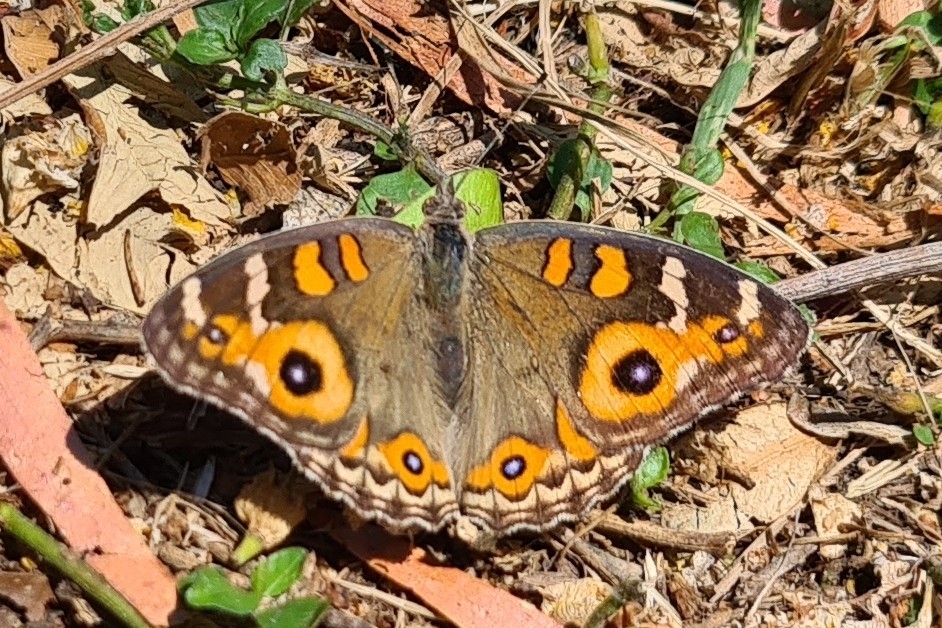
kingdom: Animalia
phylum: Arthropoda
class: Insecta
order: Lepidoptera
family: Nymphalidae
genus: Junonia
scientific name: Junonia villida
